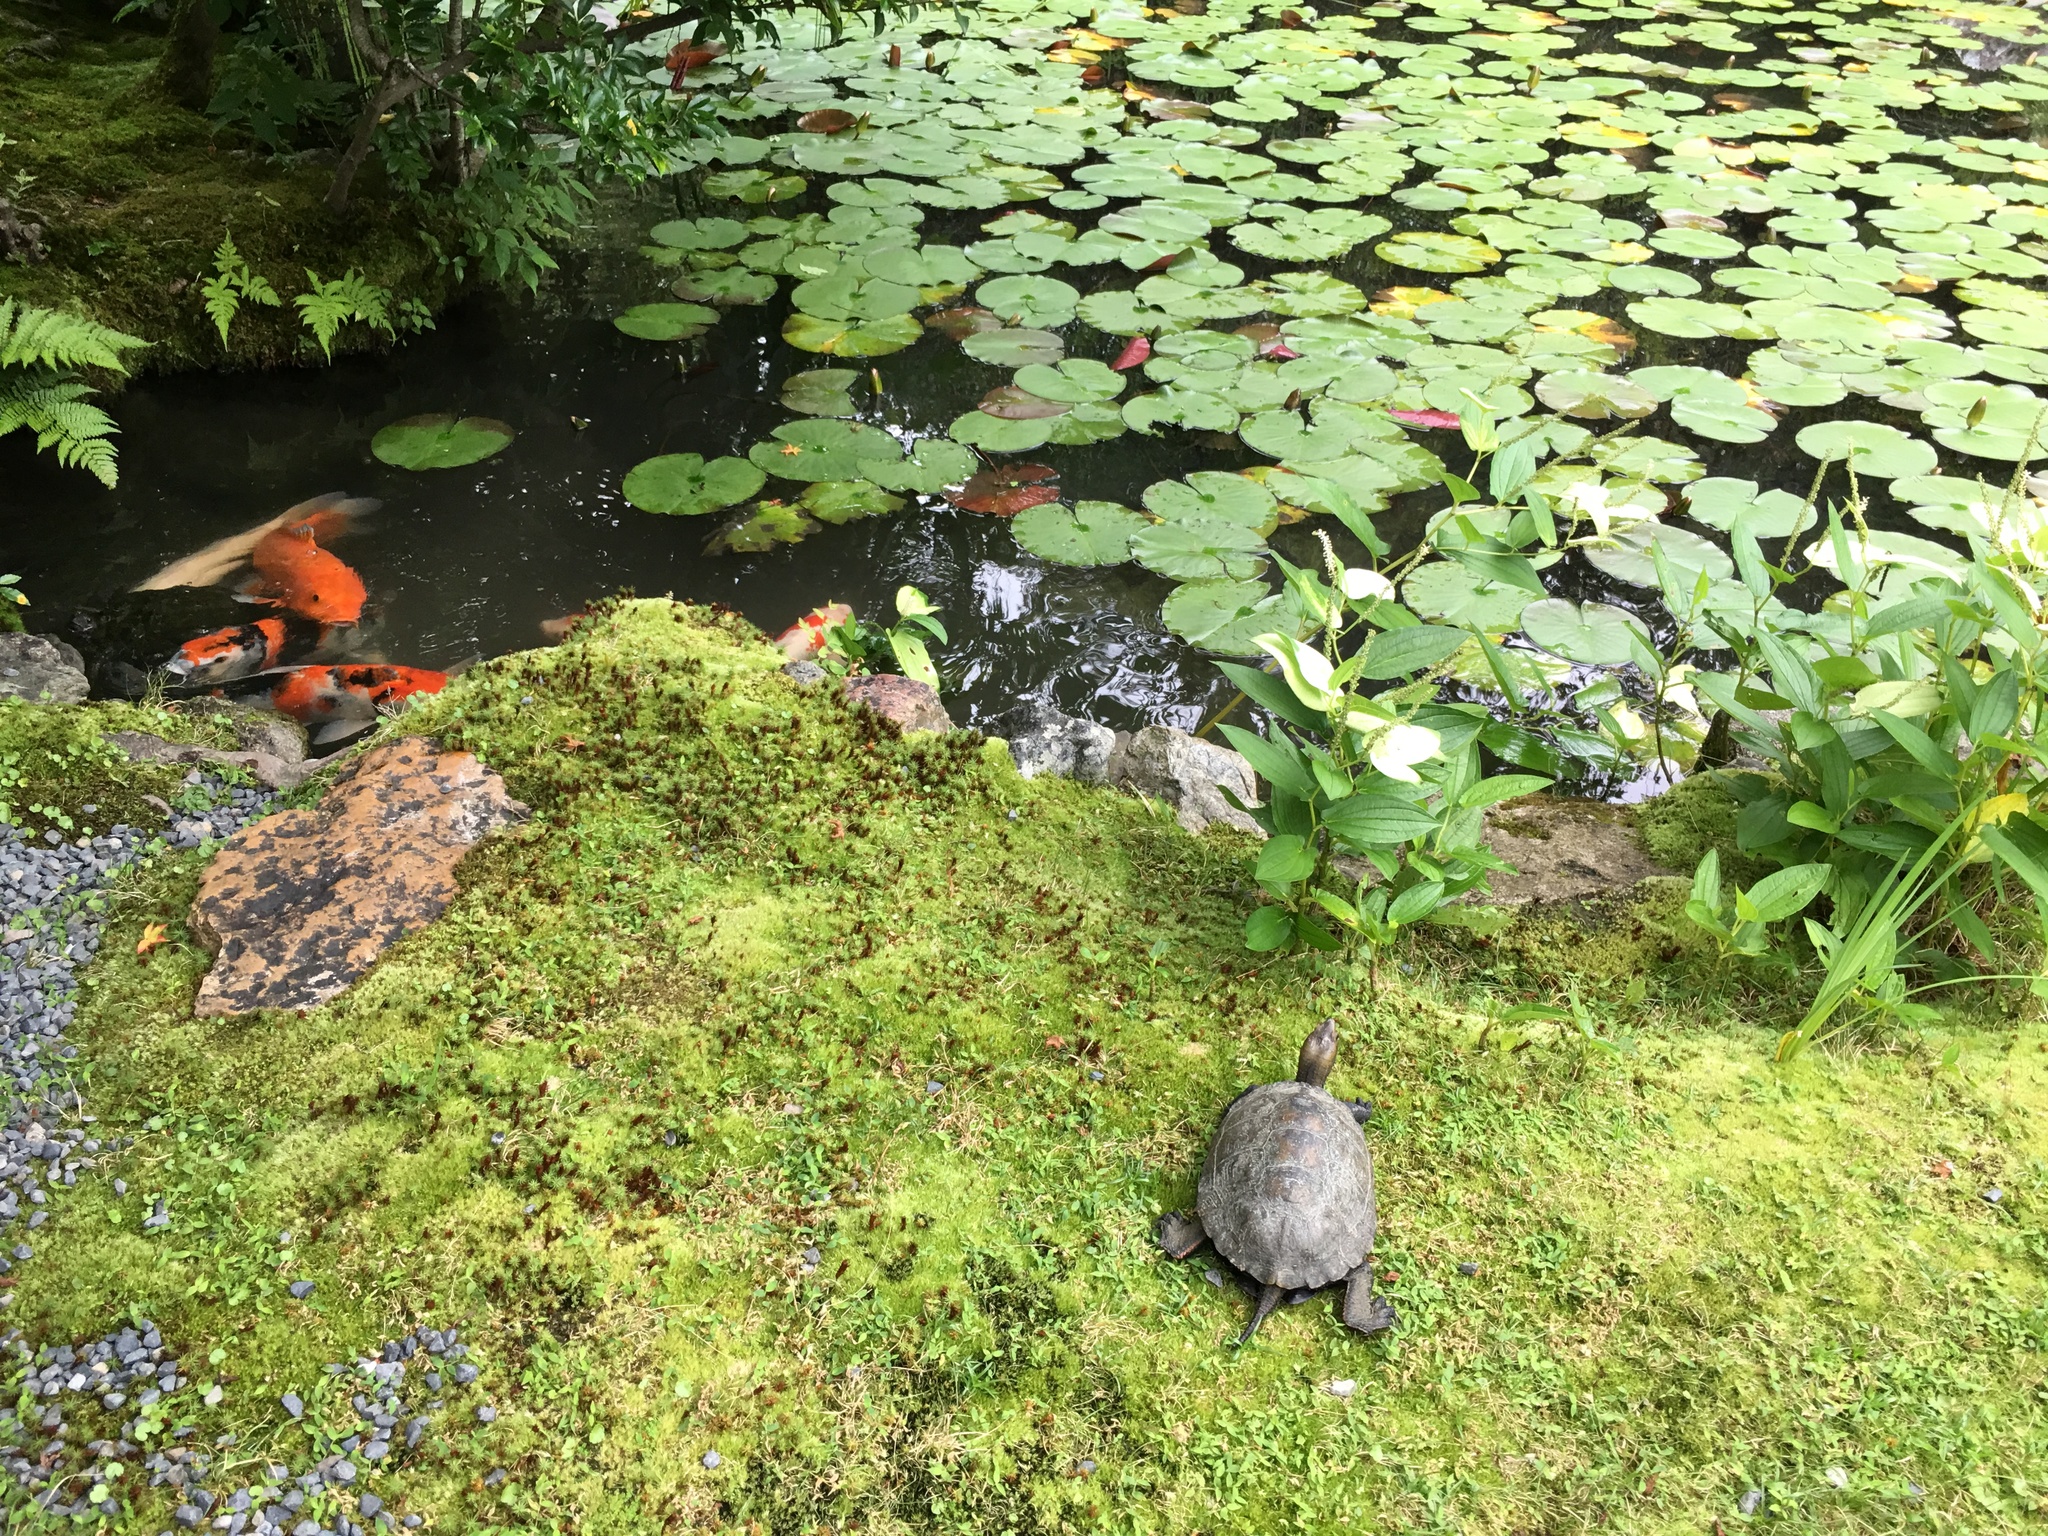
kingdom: Animalia
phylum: Chordata
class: Testudines
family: Geoemydidae
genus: Mauremys
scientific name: Mauremys japonica
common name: Japanese pond turtle
